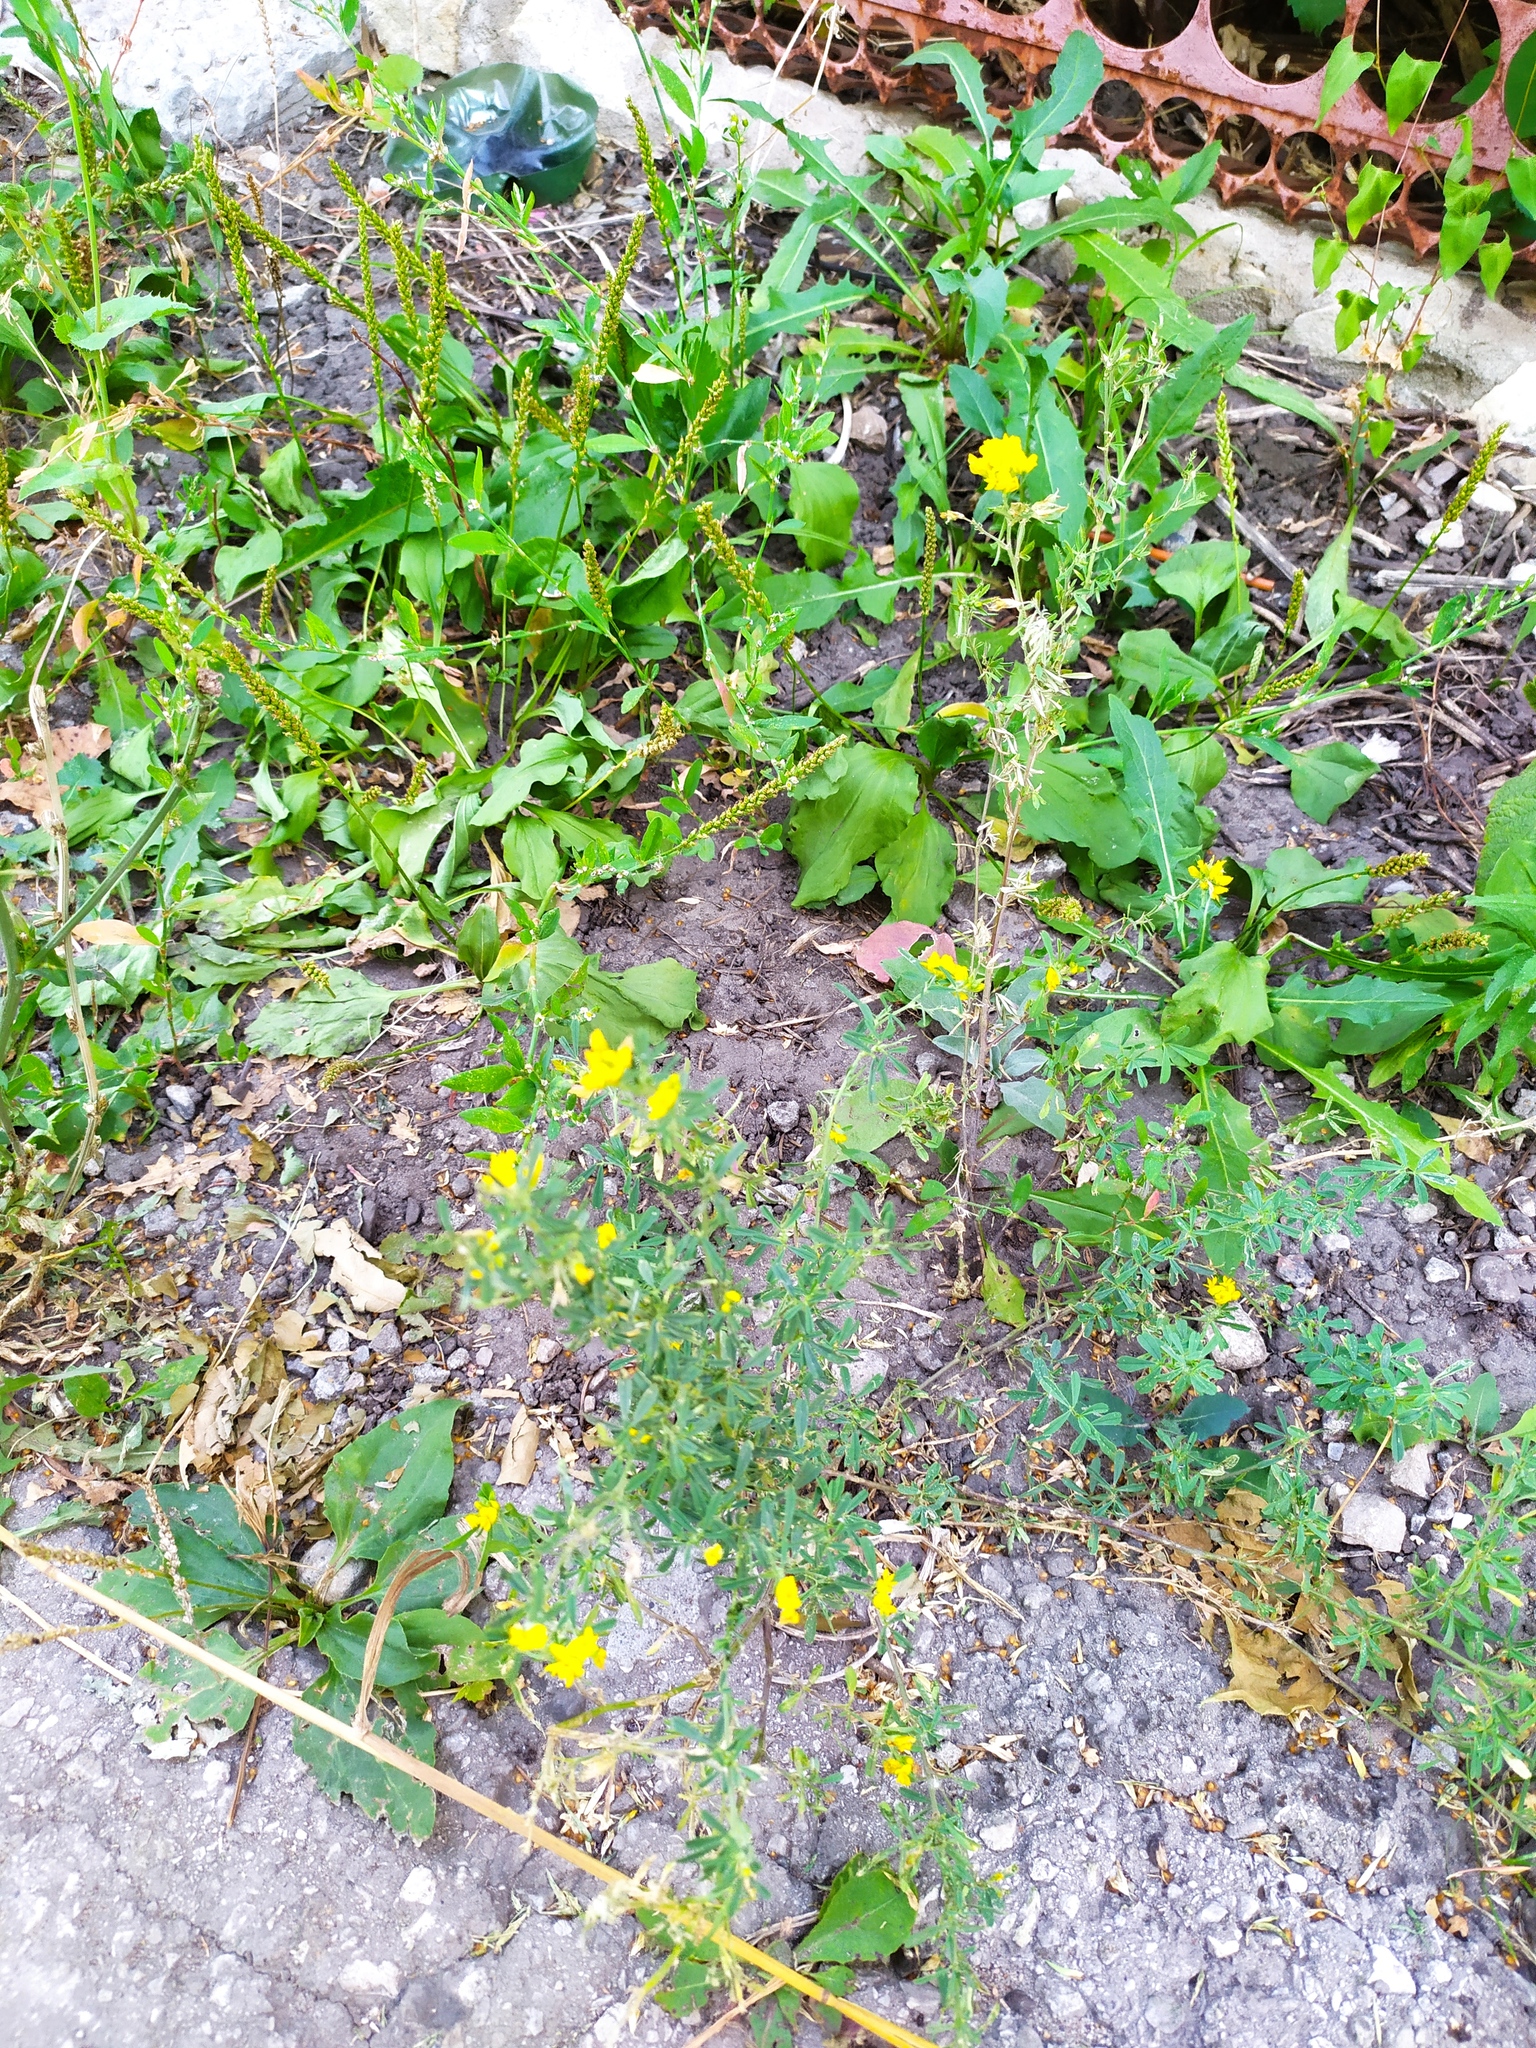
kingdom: Plantae
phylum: Tracheophyta
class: Magnoliopsida
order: Fabales
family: Fabaceae
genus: Medicago
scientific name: Medicago falcata
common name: Sickle medick
